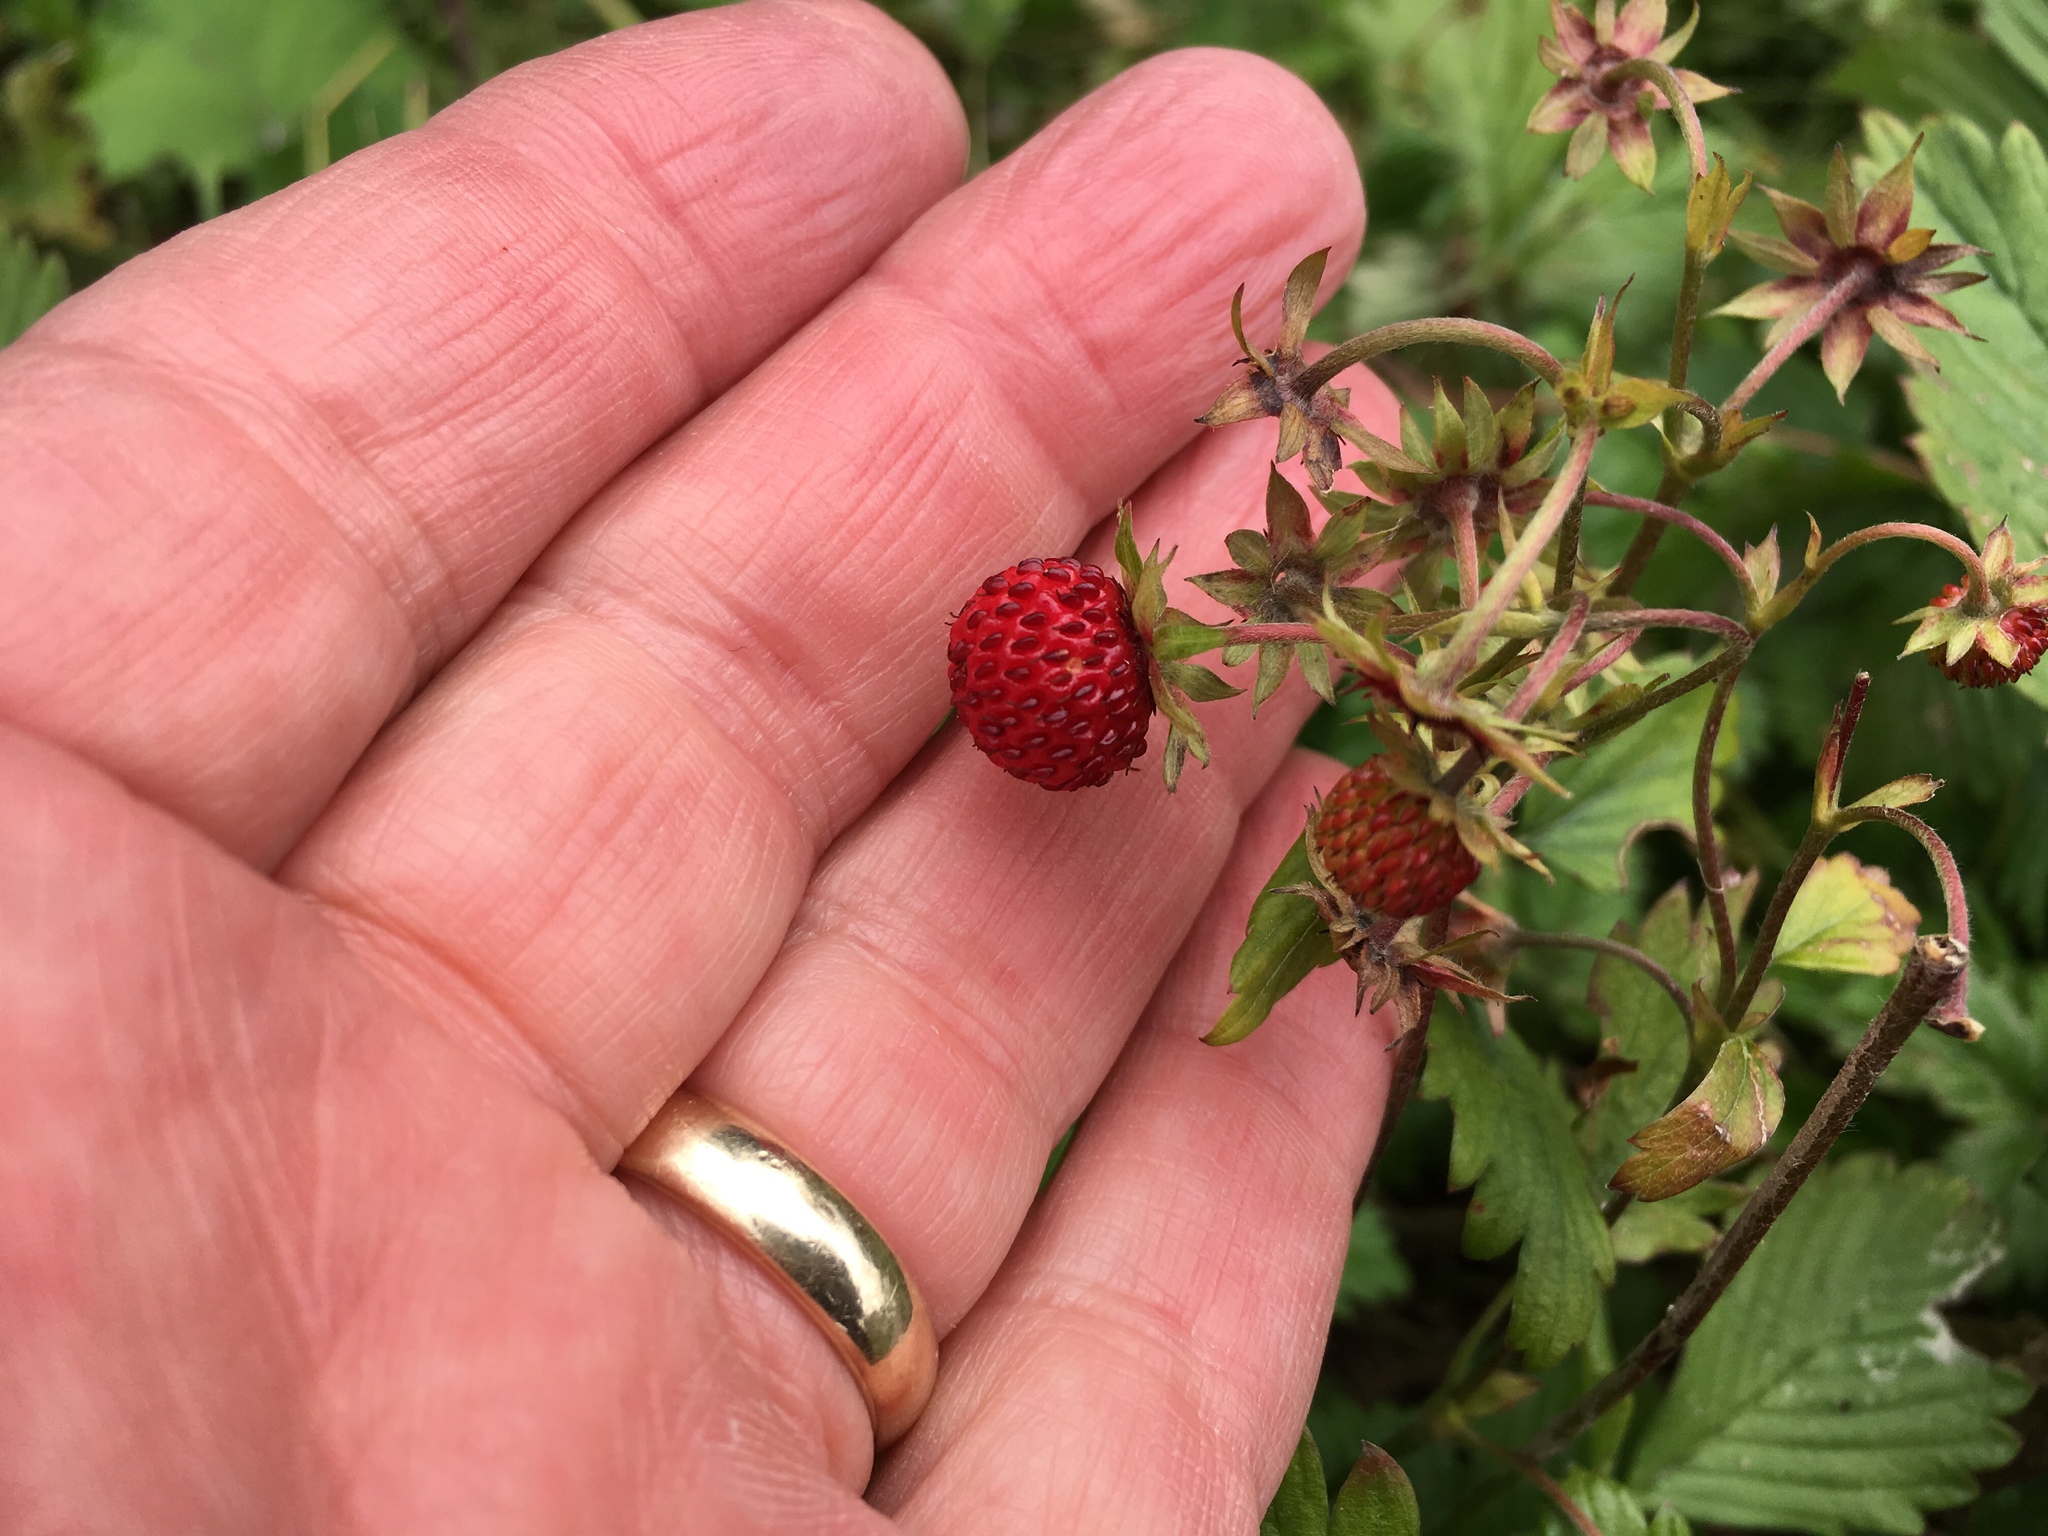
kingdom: Plantae
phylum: Tracheophyta
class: Magnoliopsida
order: Rosales
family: Rosaceae
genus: Fragaria
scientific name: Fragaria vesca
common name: Wild strawberry
